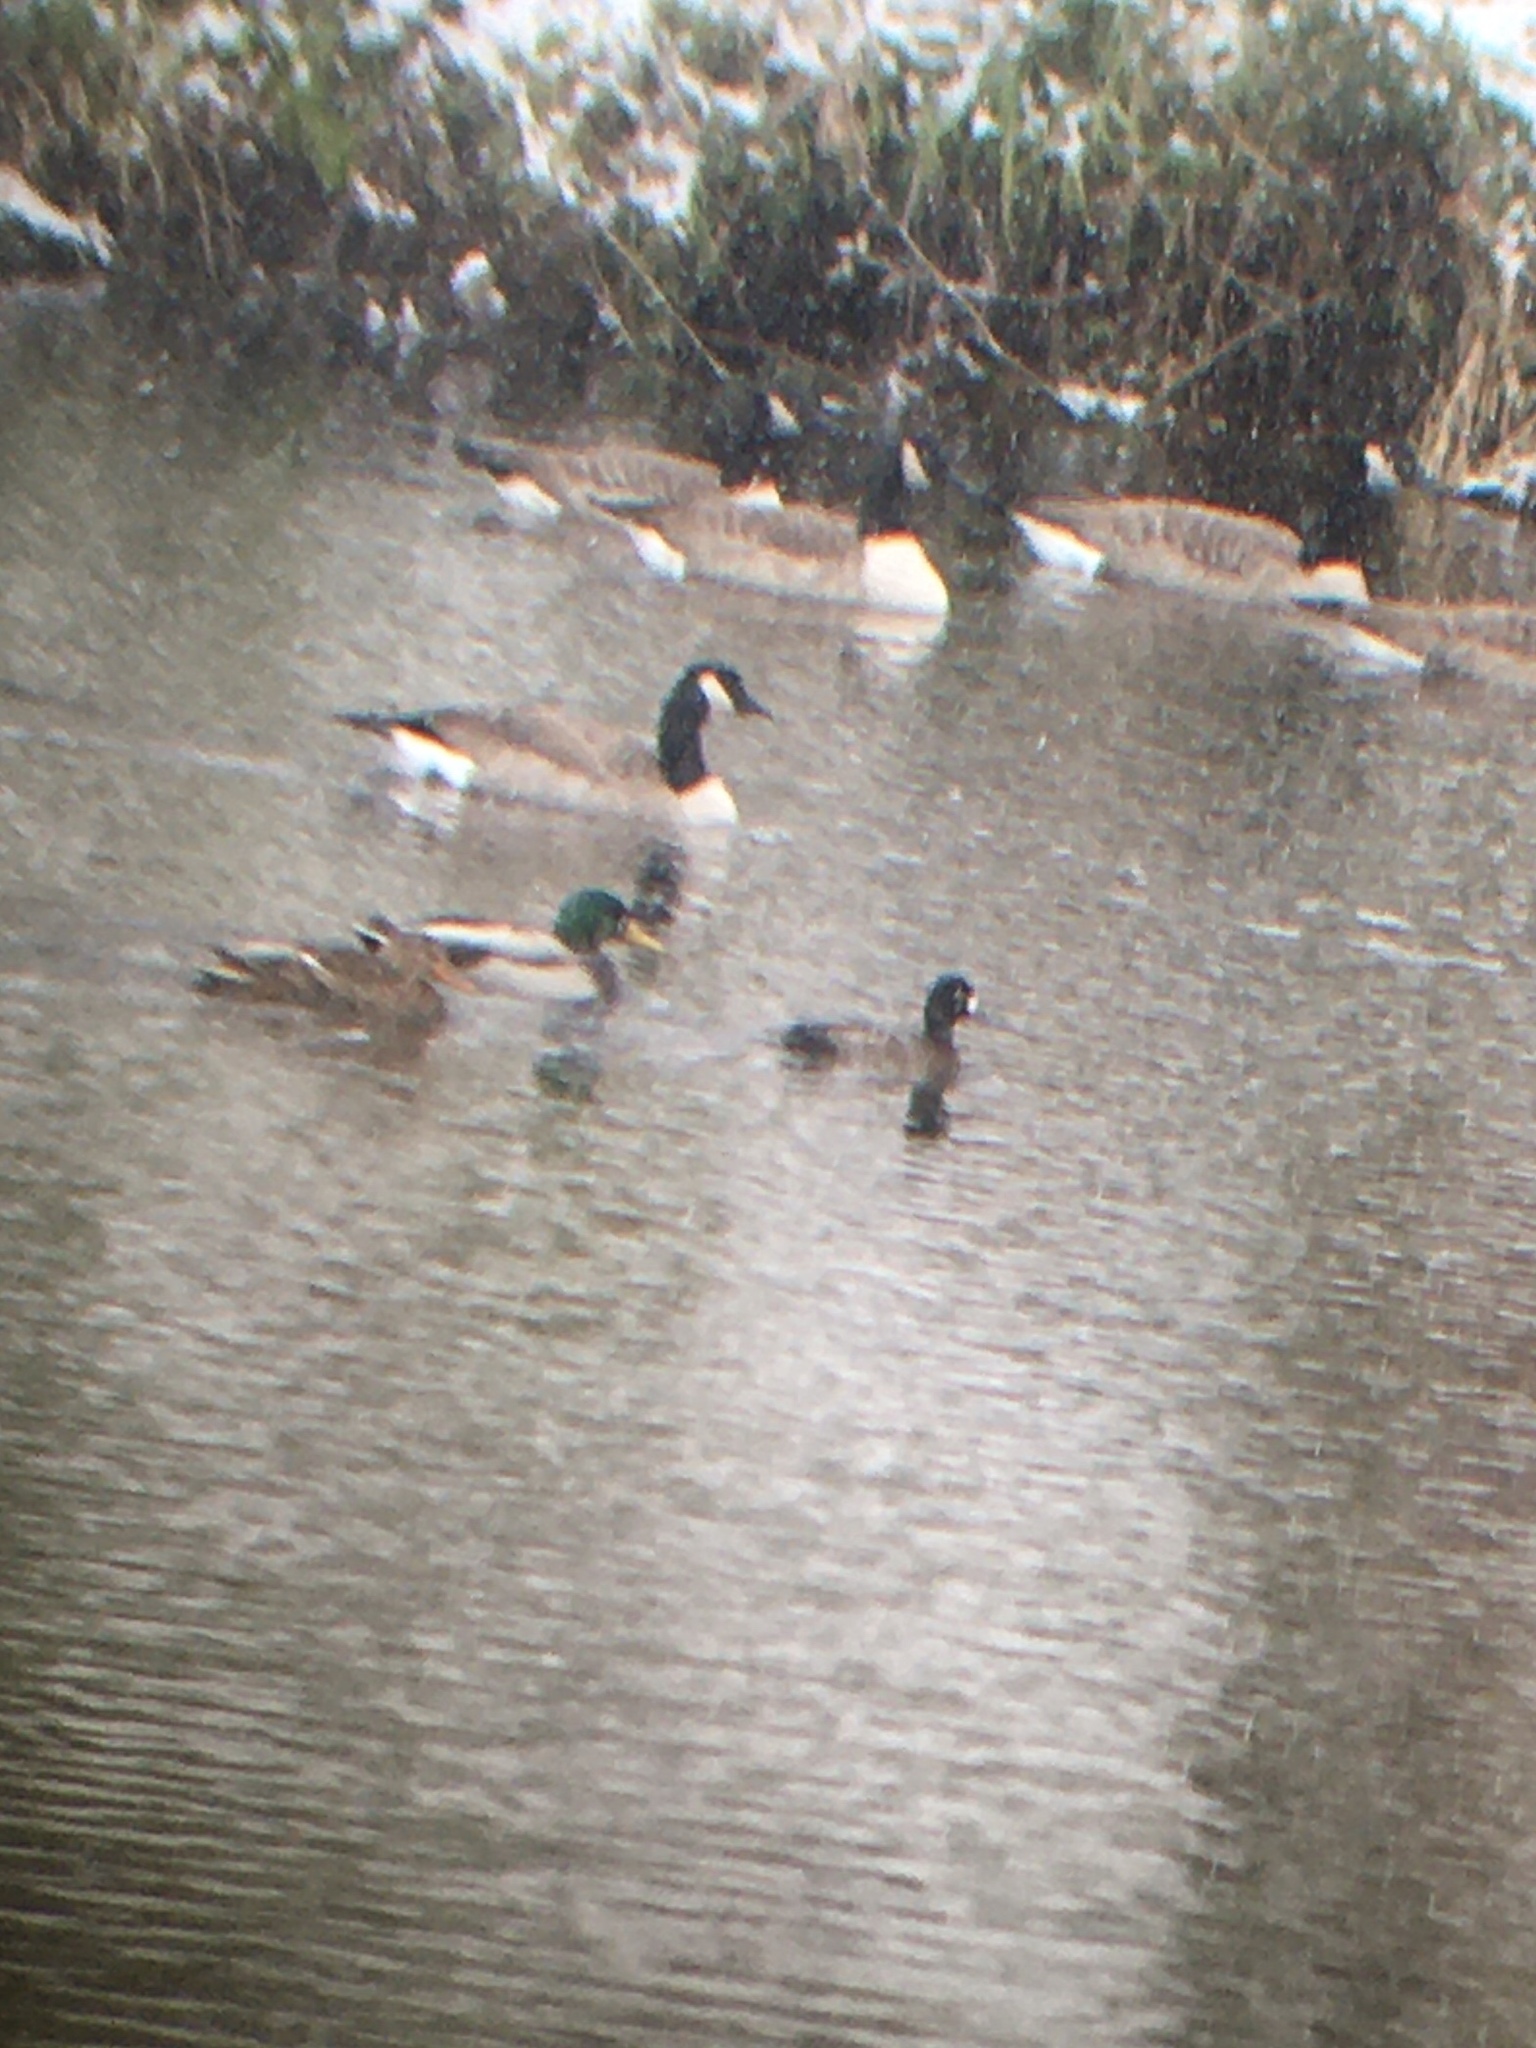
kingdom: Animalia
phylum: Chordata
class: Aves
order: Anseriformes
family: Anatidae
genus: Aythya
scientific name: Aythya affinis
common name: Lesser scaup
